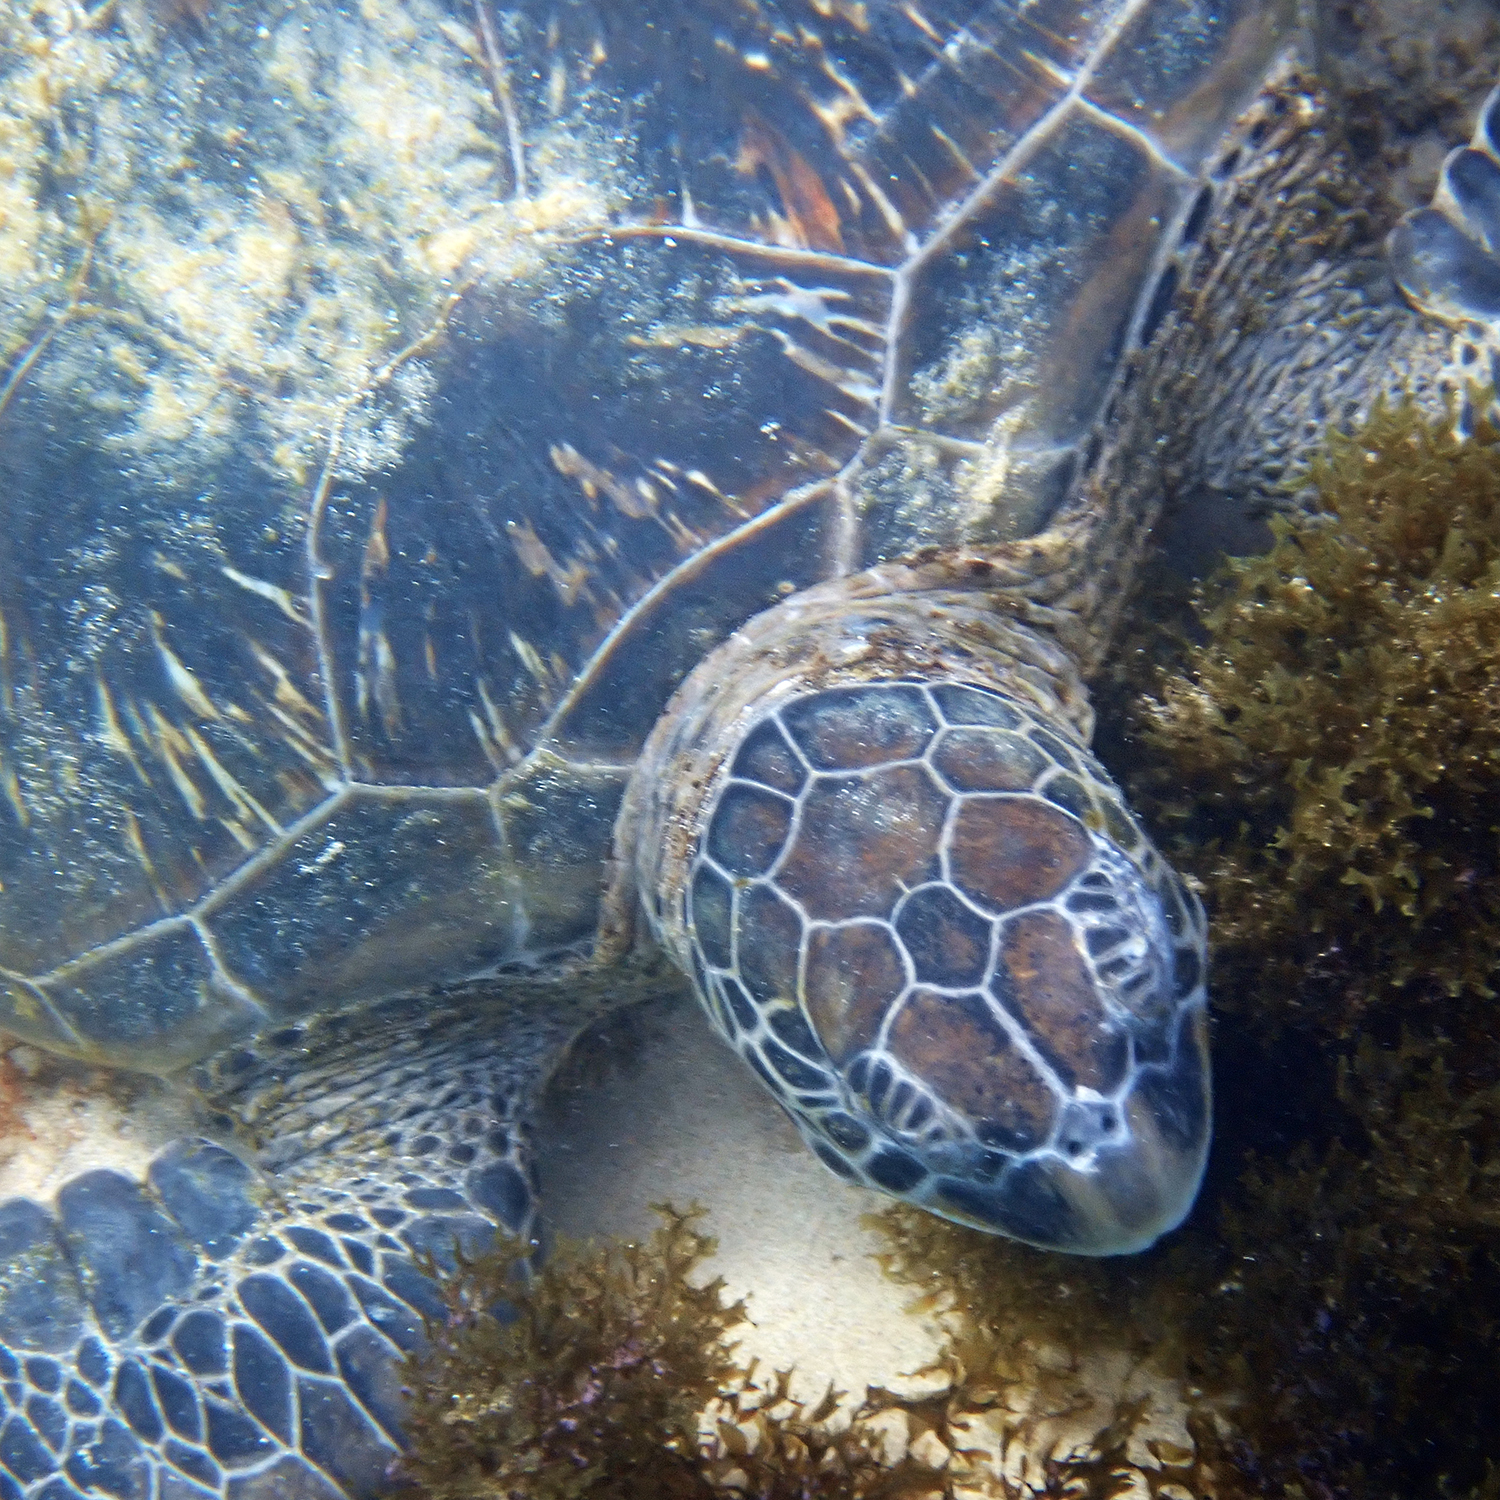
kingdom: Animalia
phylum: Chordata
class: Testudines
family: Cheloniidae
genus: Chelonia
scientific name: Chelonia mydas
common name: Green turtle
